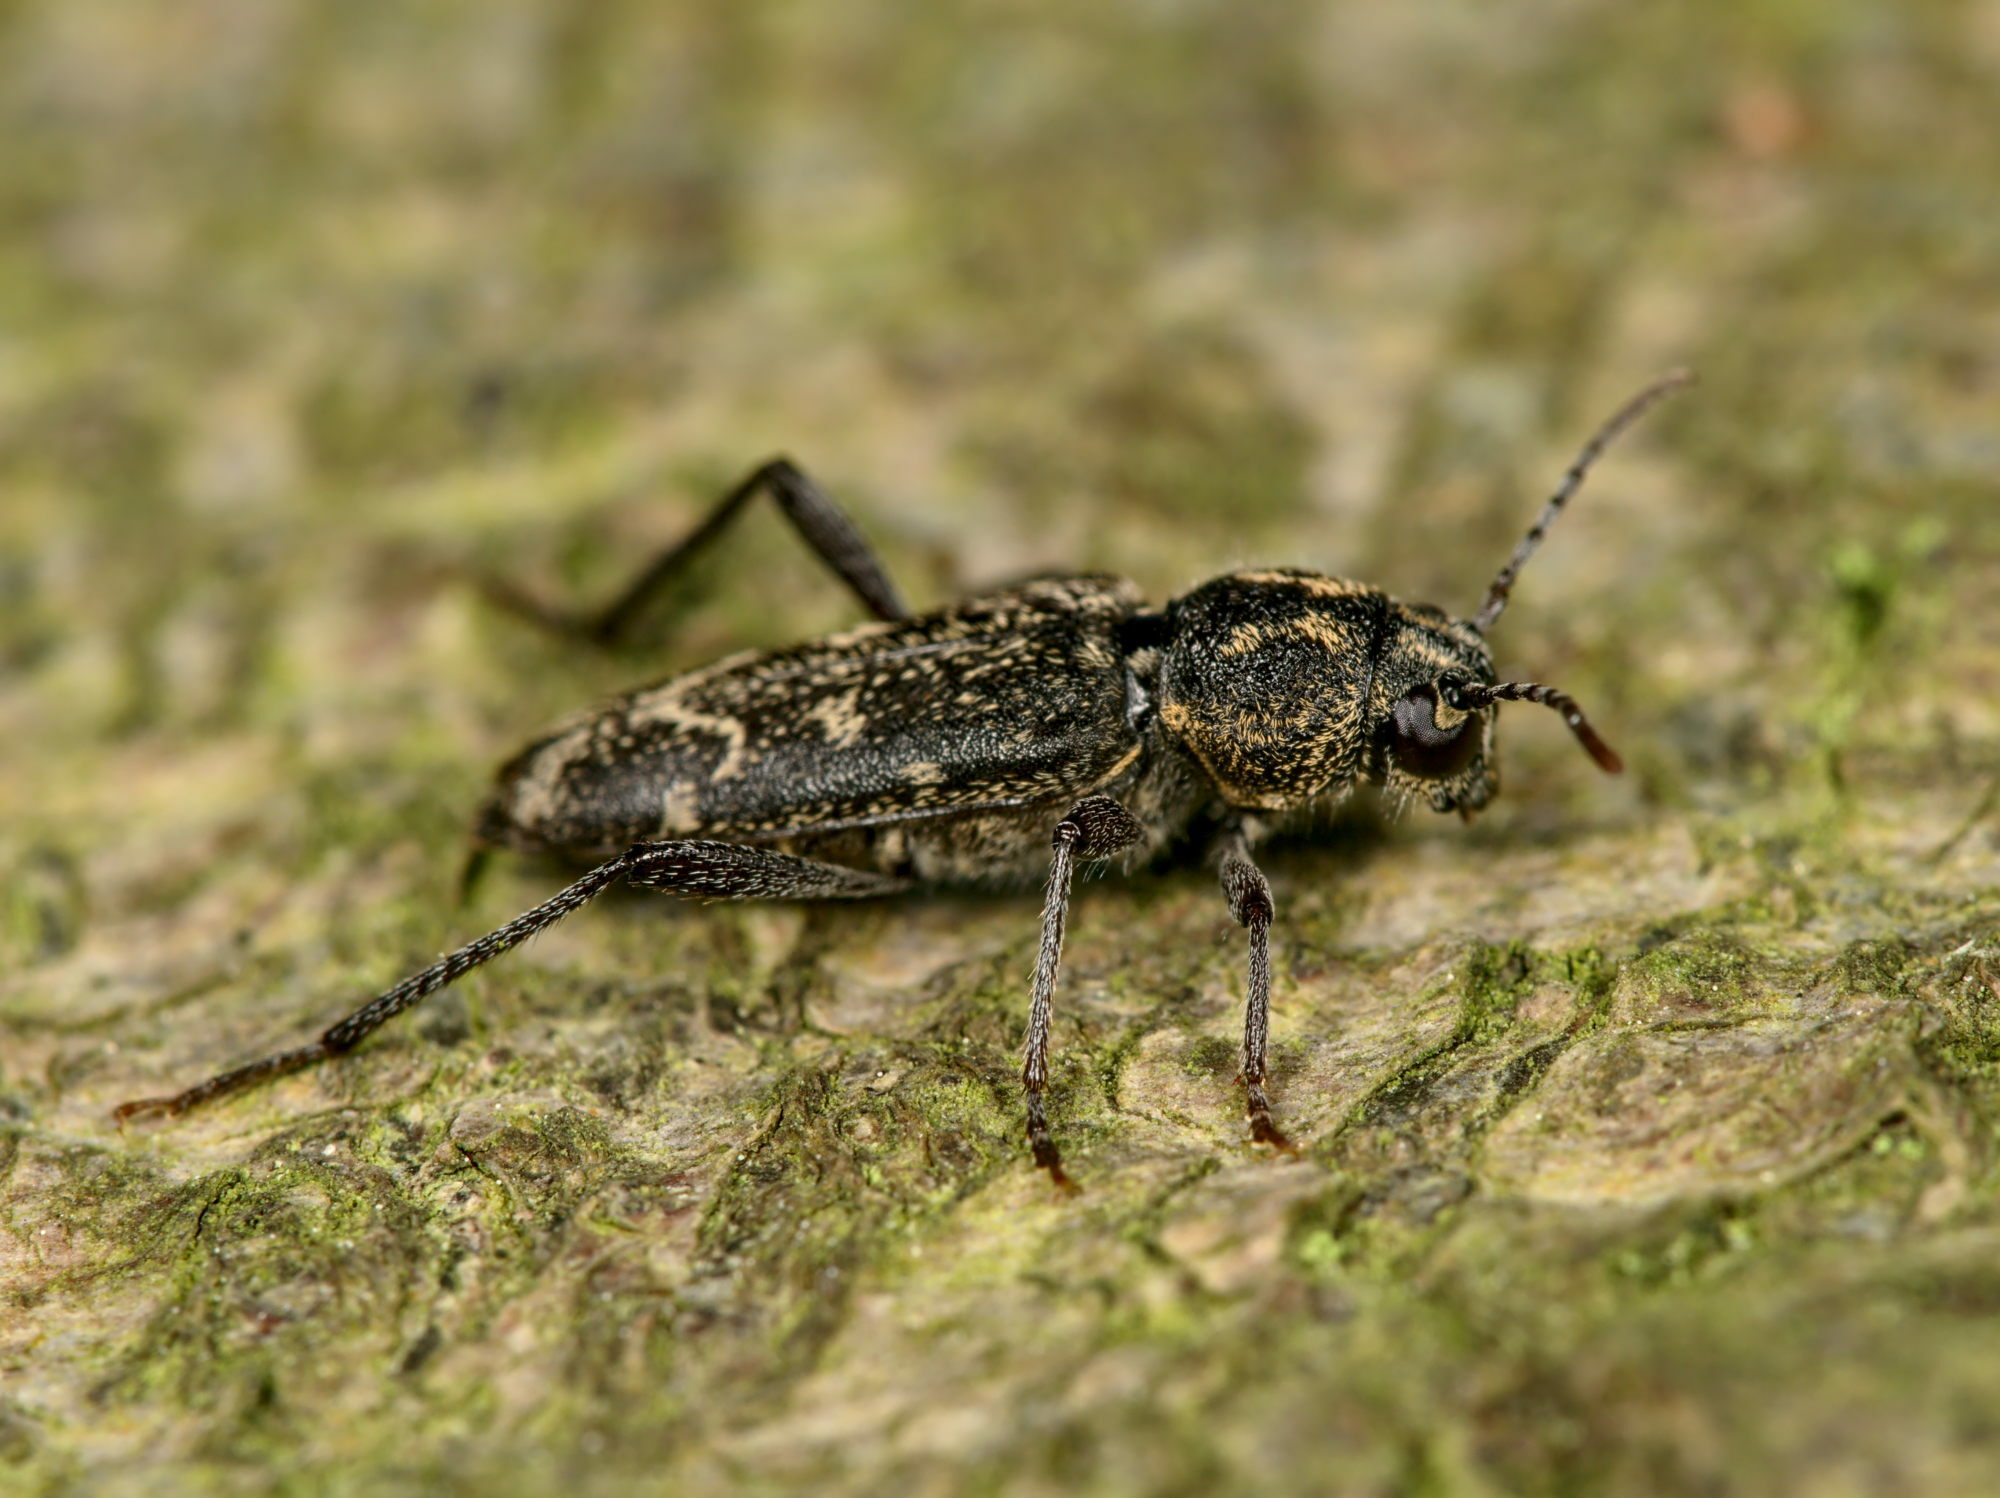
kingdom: Animalia
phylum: Arthropoda
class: Insecta
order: Coleoptera
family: Cerambycidae
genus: Xylotrechus
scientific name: Xylotrechus rusticus
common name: Grey tiger long-horned beetle
